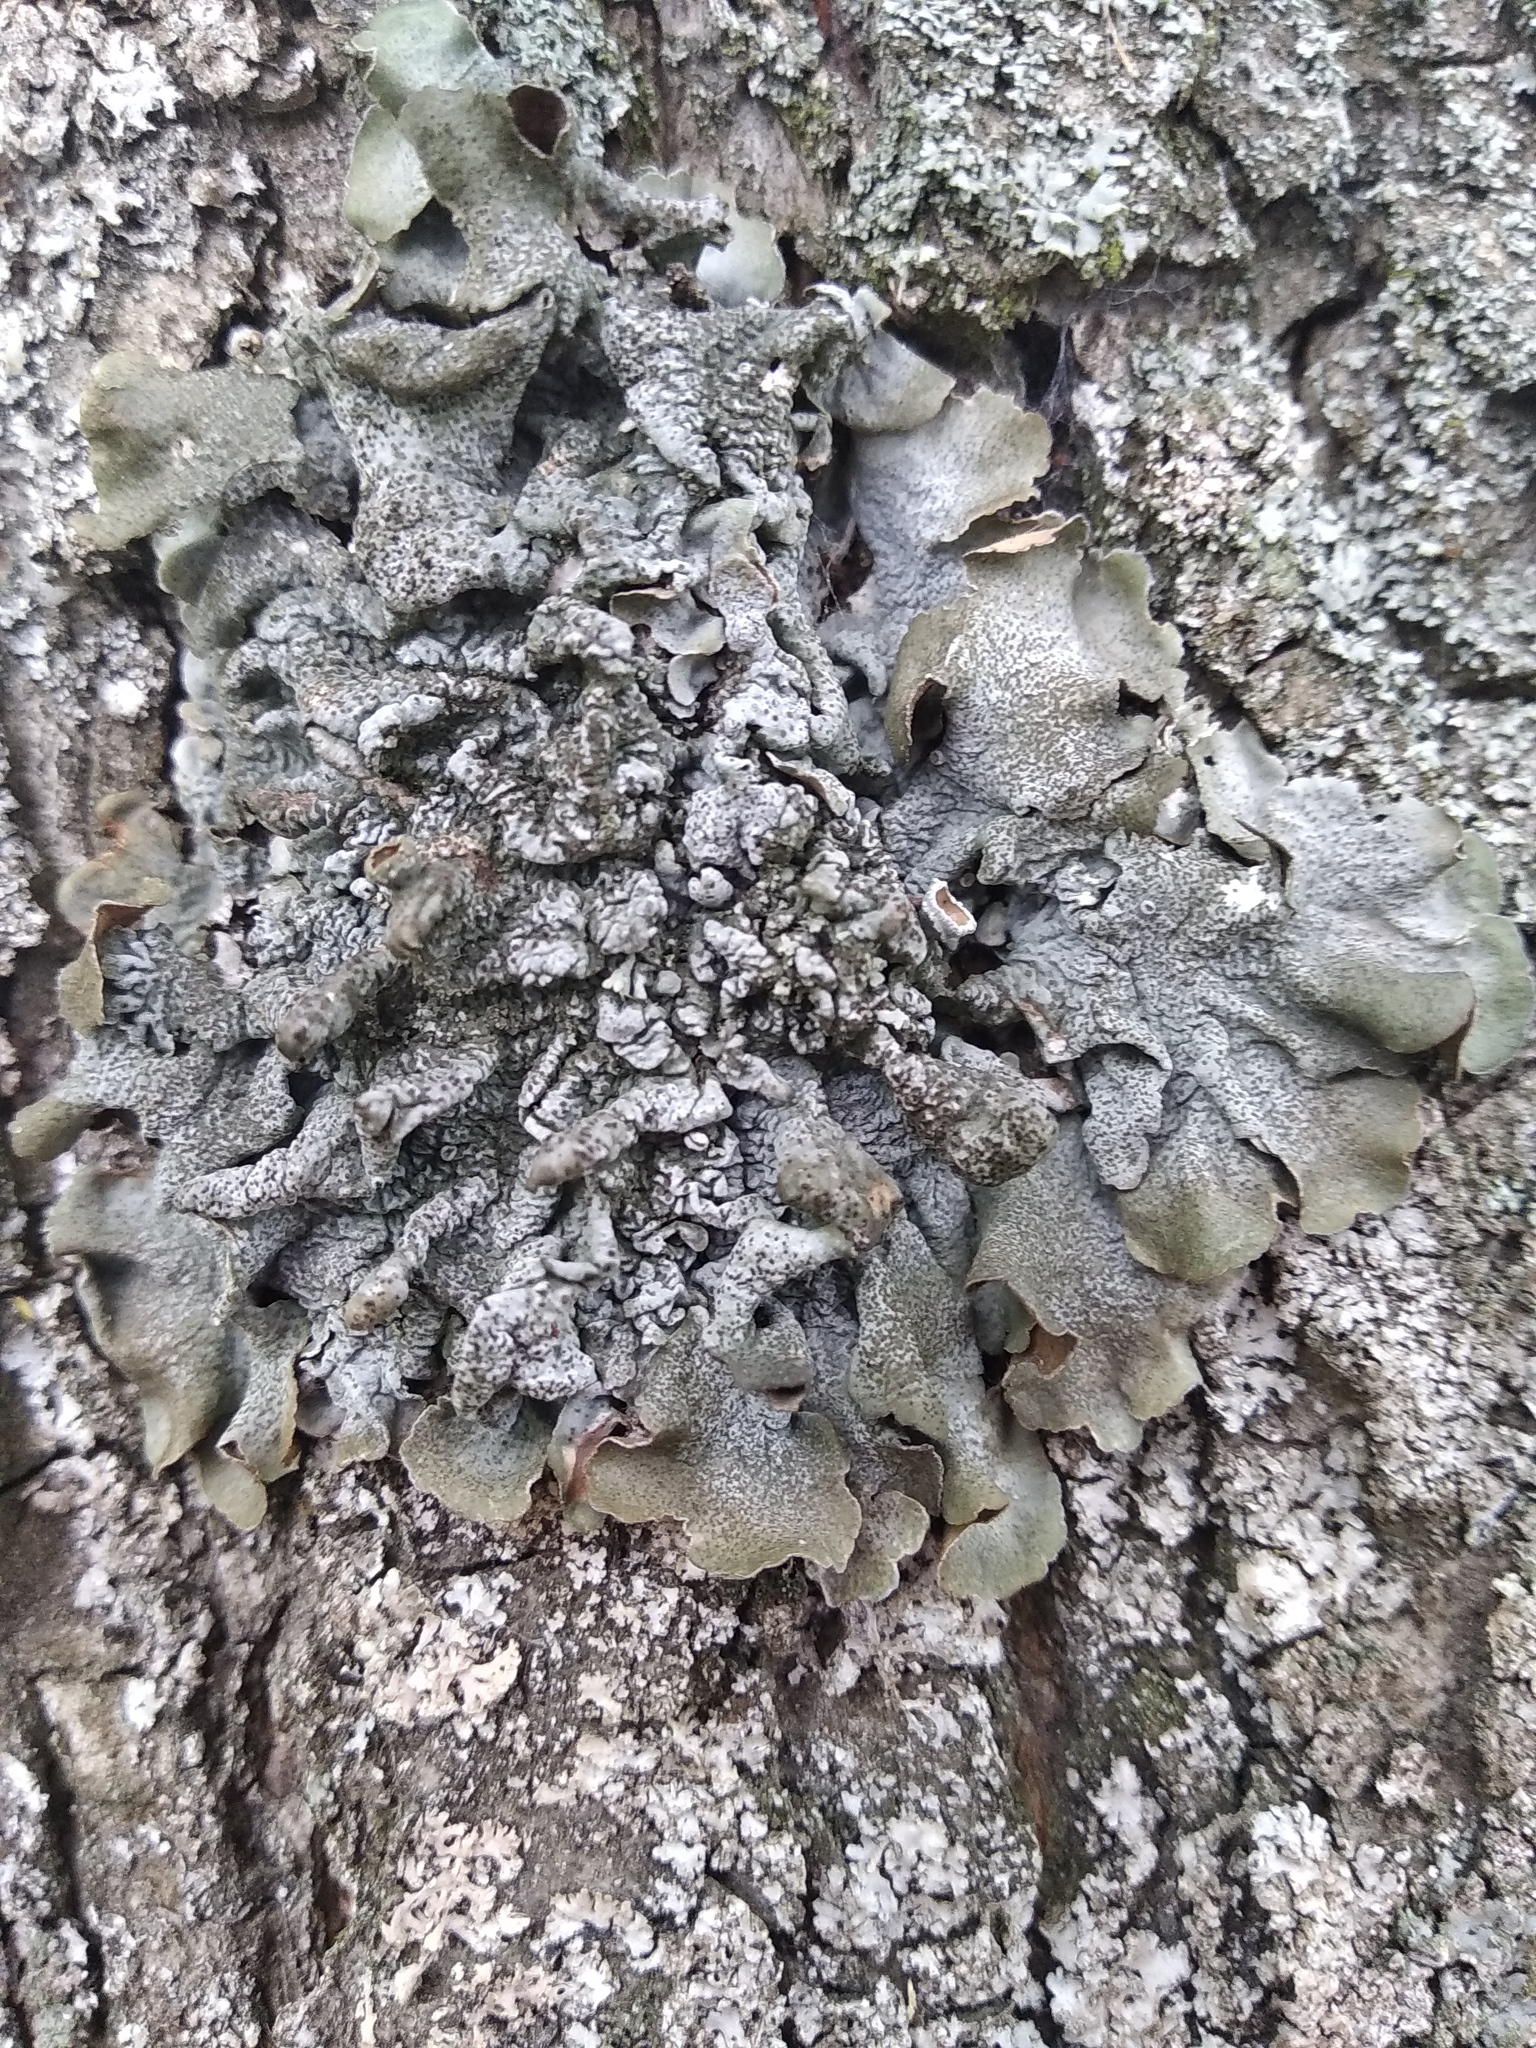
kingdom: Fungi
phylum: Ascomycota
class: Lecanoromycetes
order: Lecanorales
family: Parmeliaceae
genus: Pleurosticta
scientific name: Pleurosticta acetabulum
